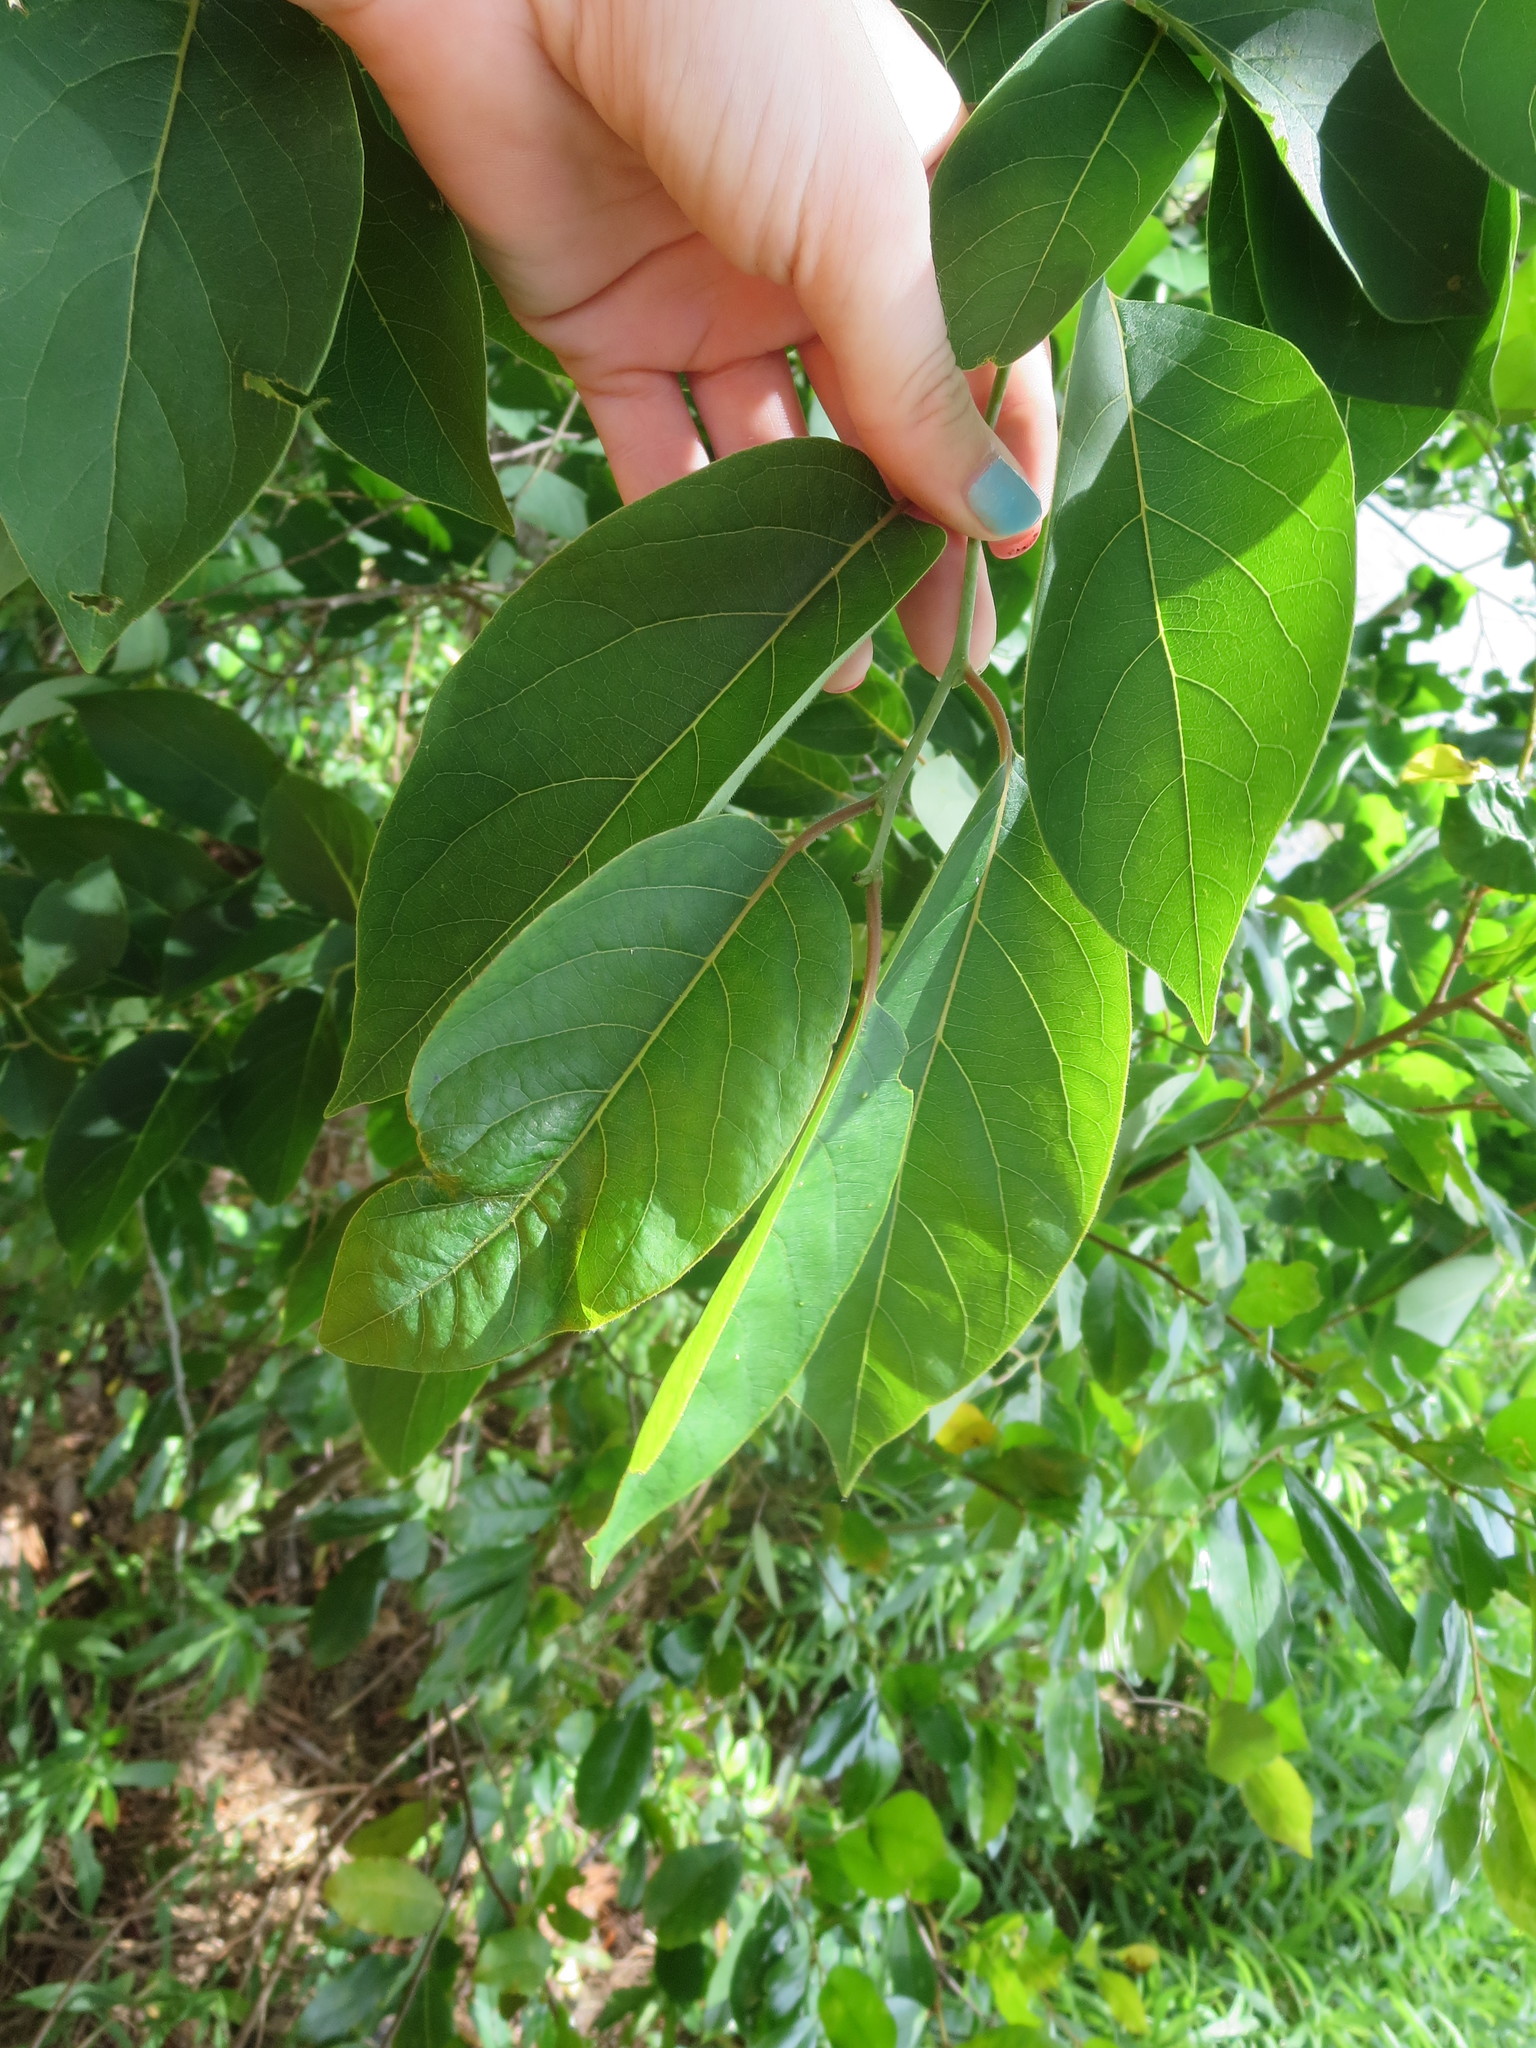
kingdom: Plantae
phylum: Tracheophyta
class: Magnoliopsida
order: Ericales
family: Ebenaceae
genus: Diospyros
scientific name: Diospyros virginiana
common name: Persimmon
